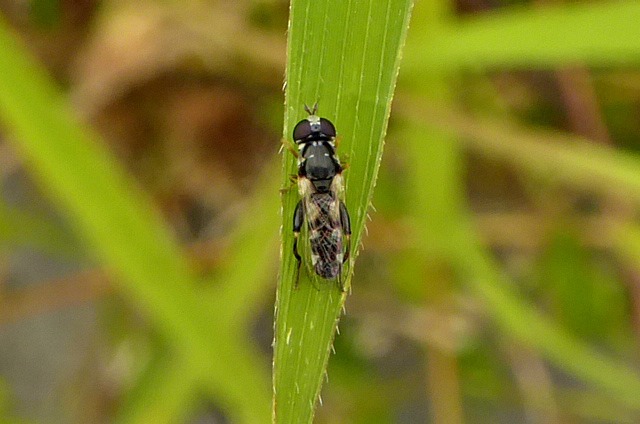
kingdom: Animalia
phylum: Arthropoda
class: Insecta
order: Diptera
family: Syrphidae
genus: Syritta
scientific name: Syritta flaviventris
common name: Syrphid fly
